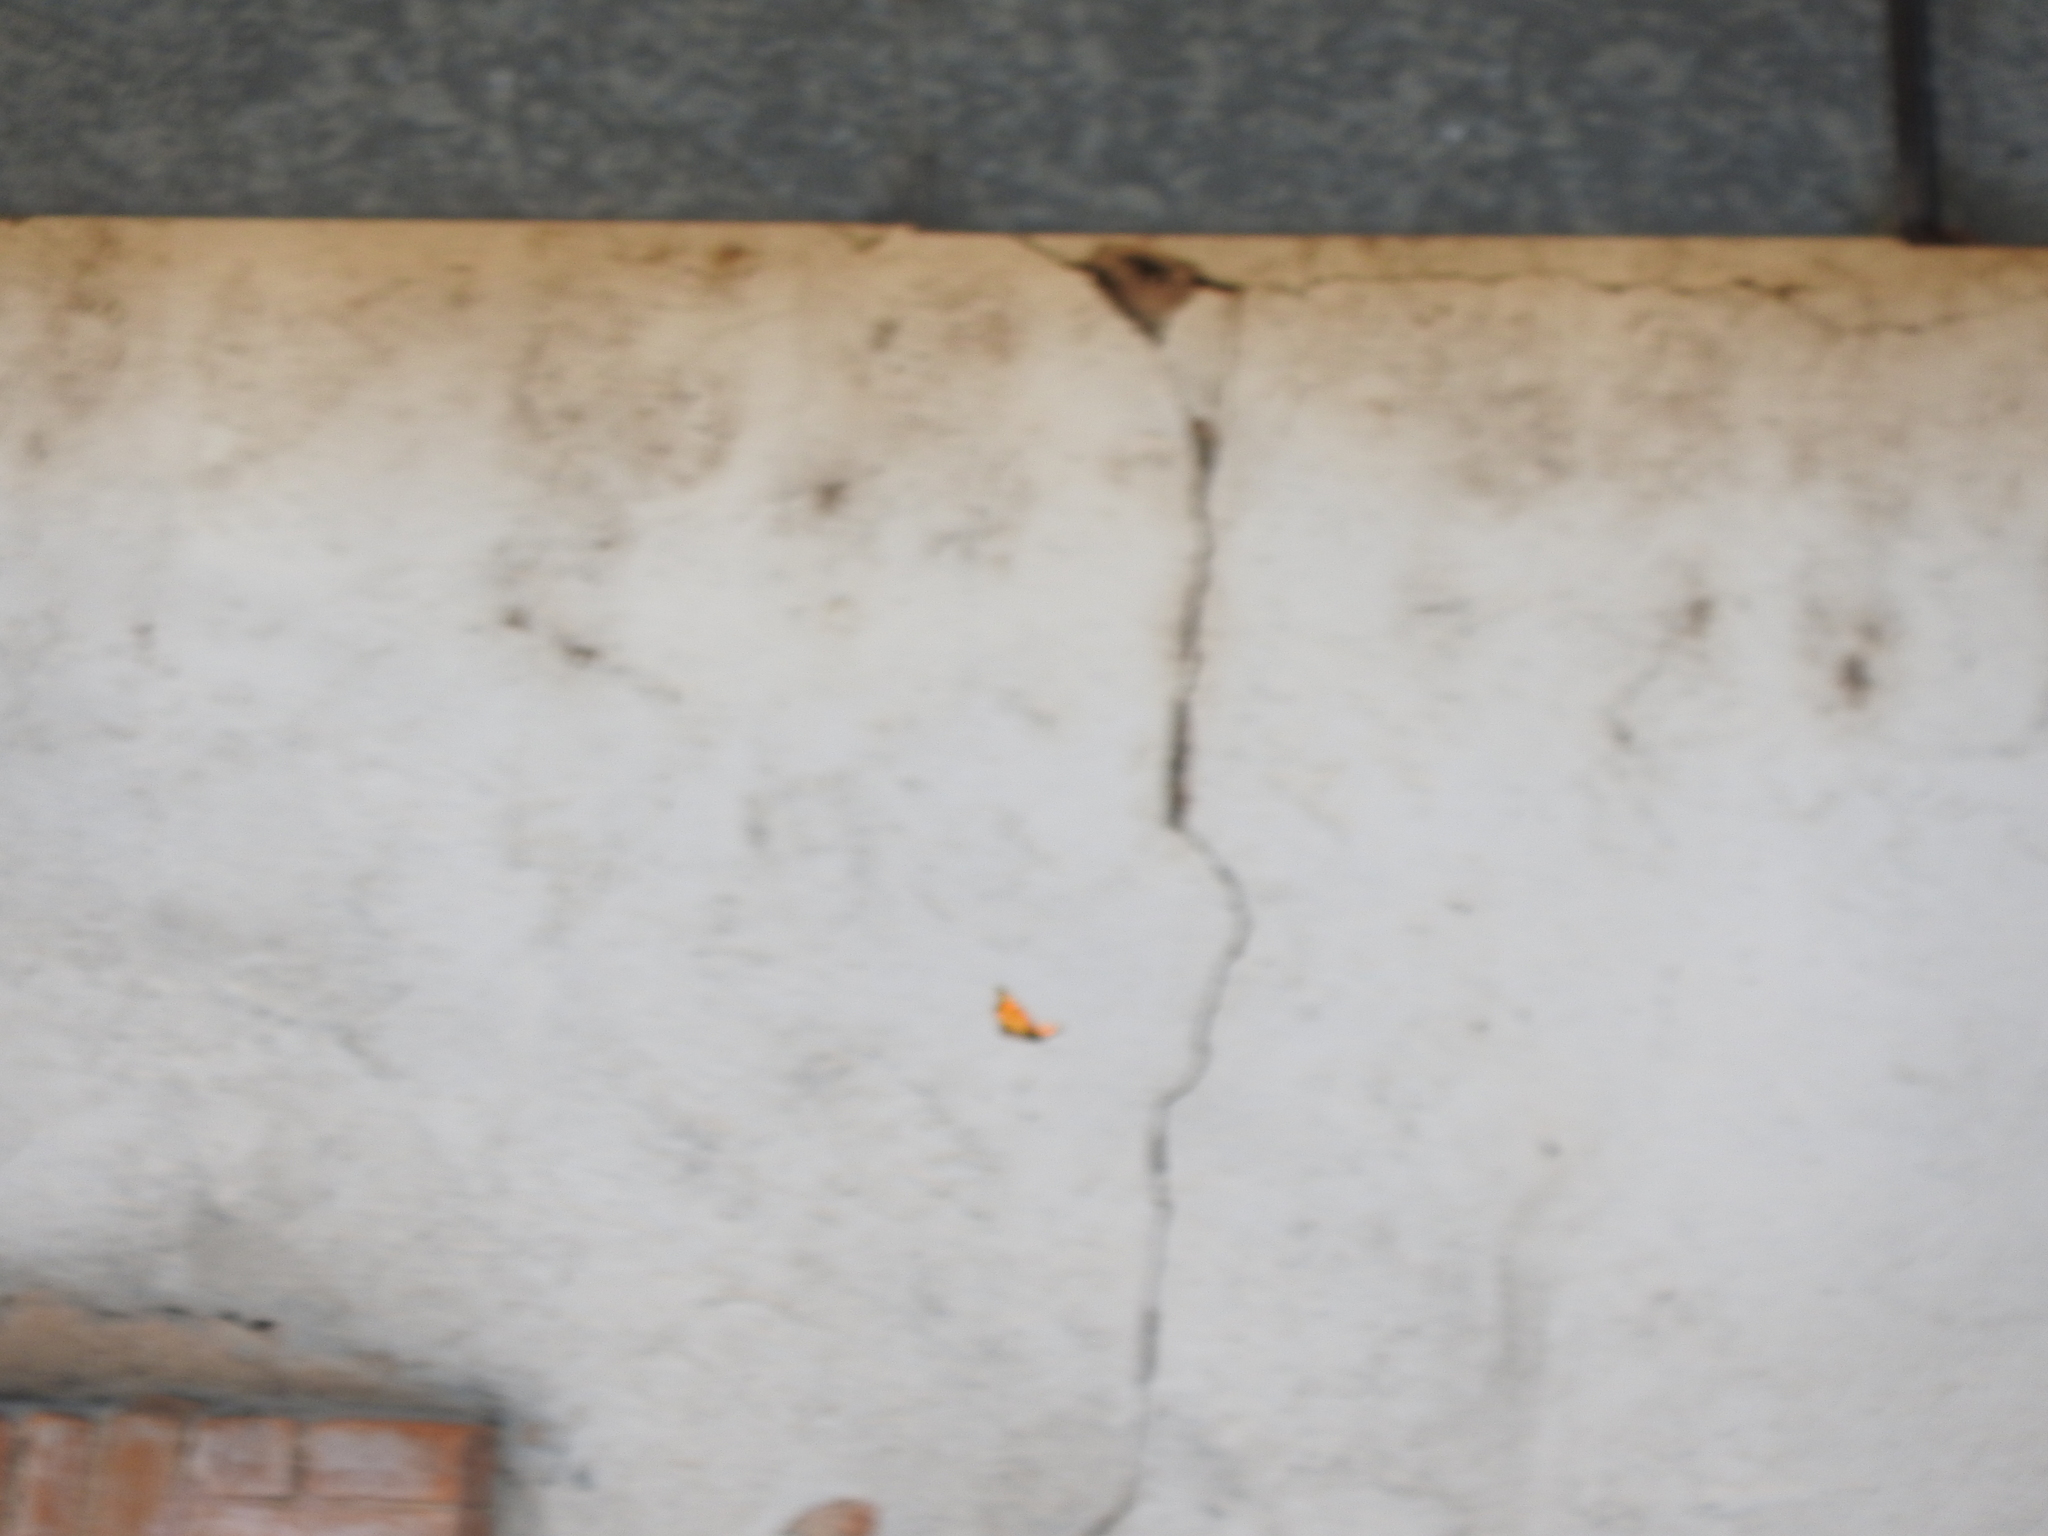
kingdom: Animalia
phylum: Arthropoda
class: Insecta
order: Lepidoptera
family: Nymphalidae
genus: Danaus
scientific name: Danaus plexippus
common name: Monarch
